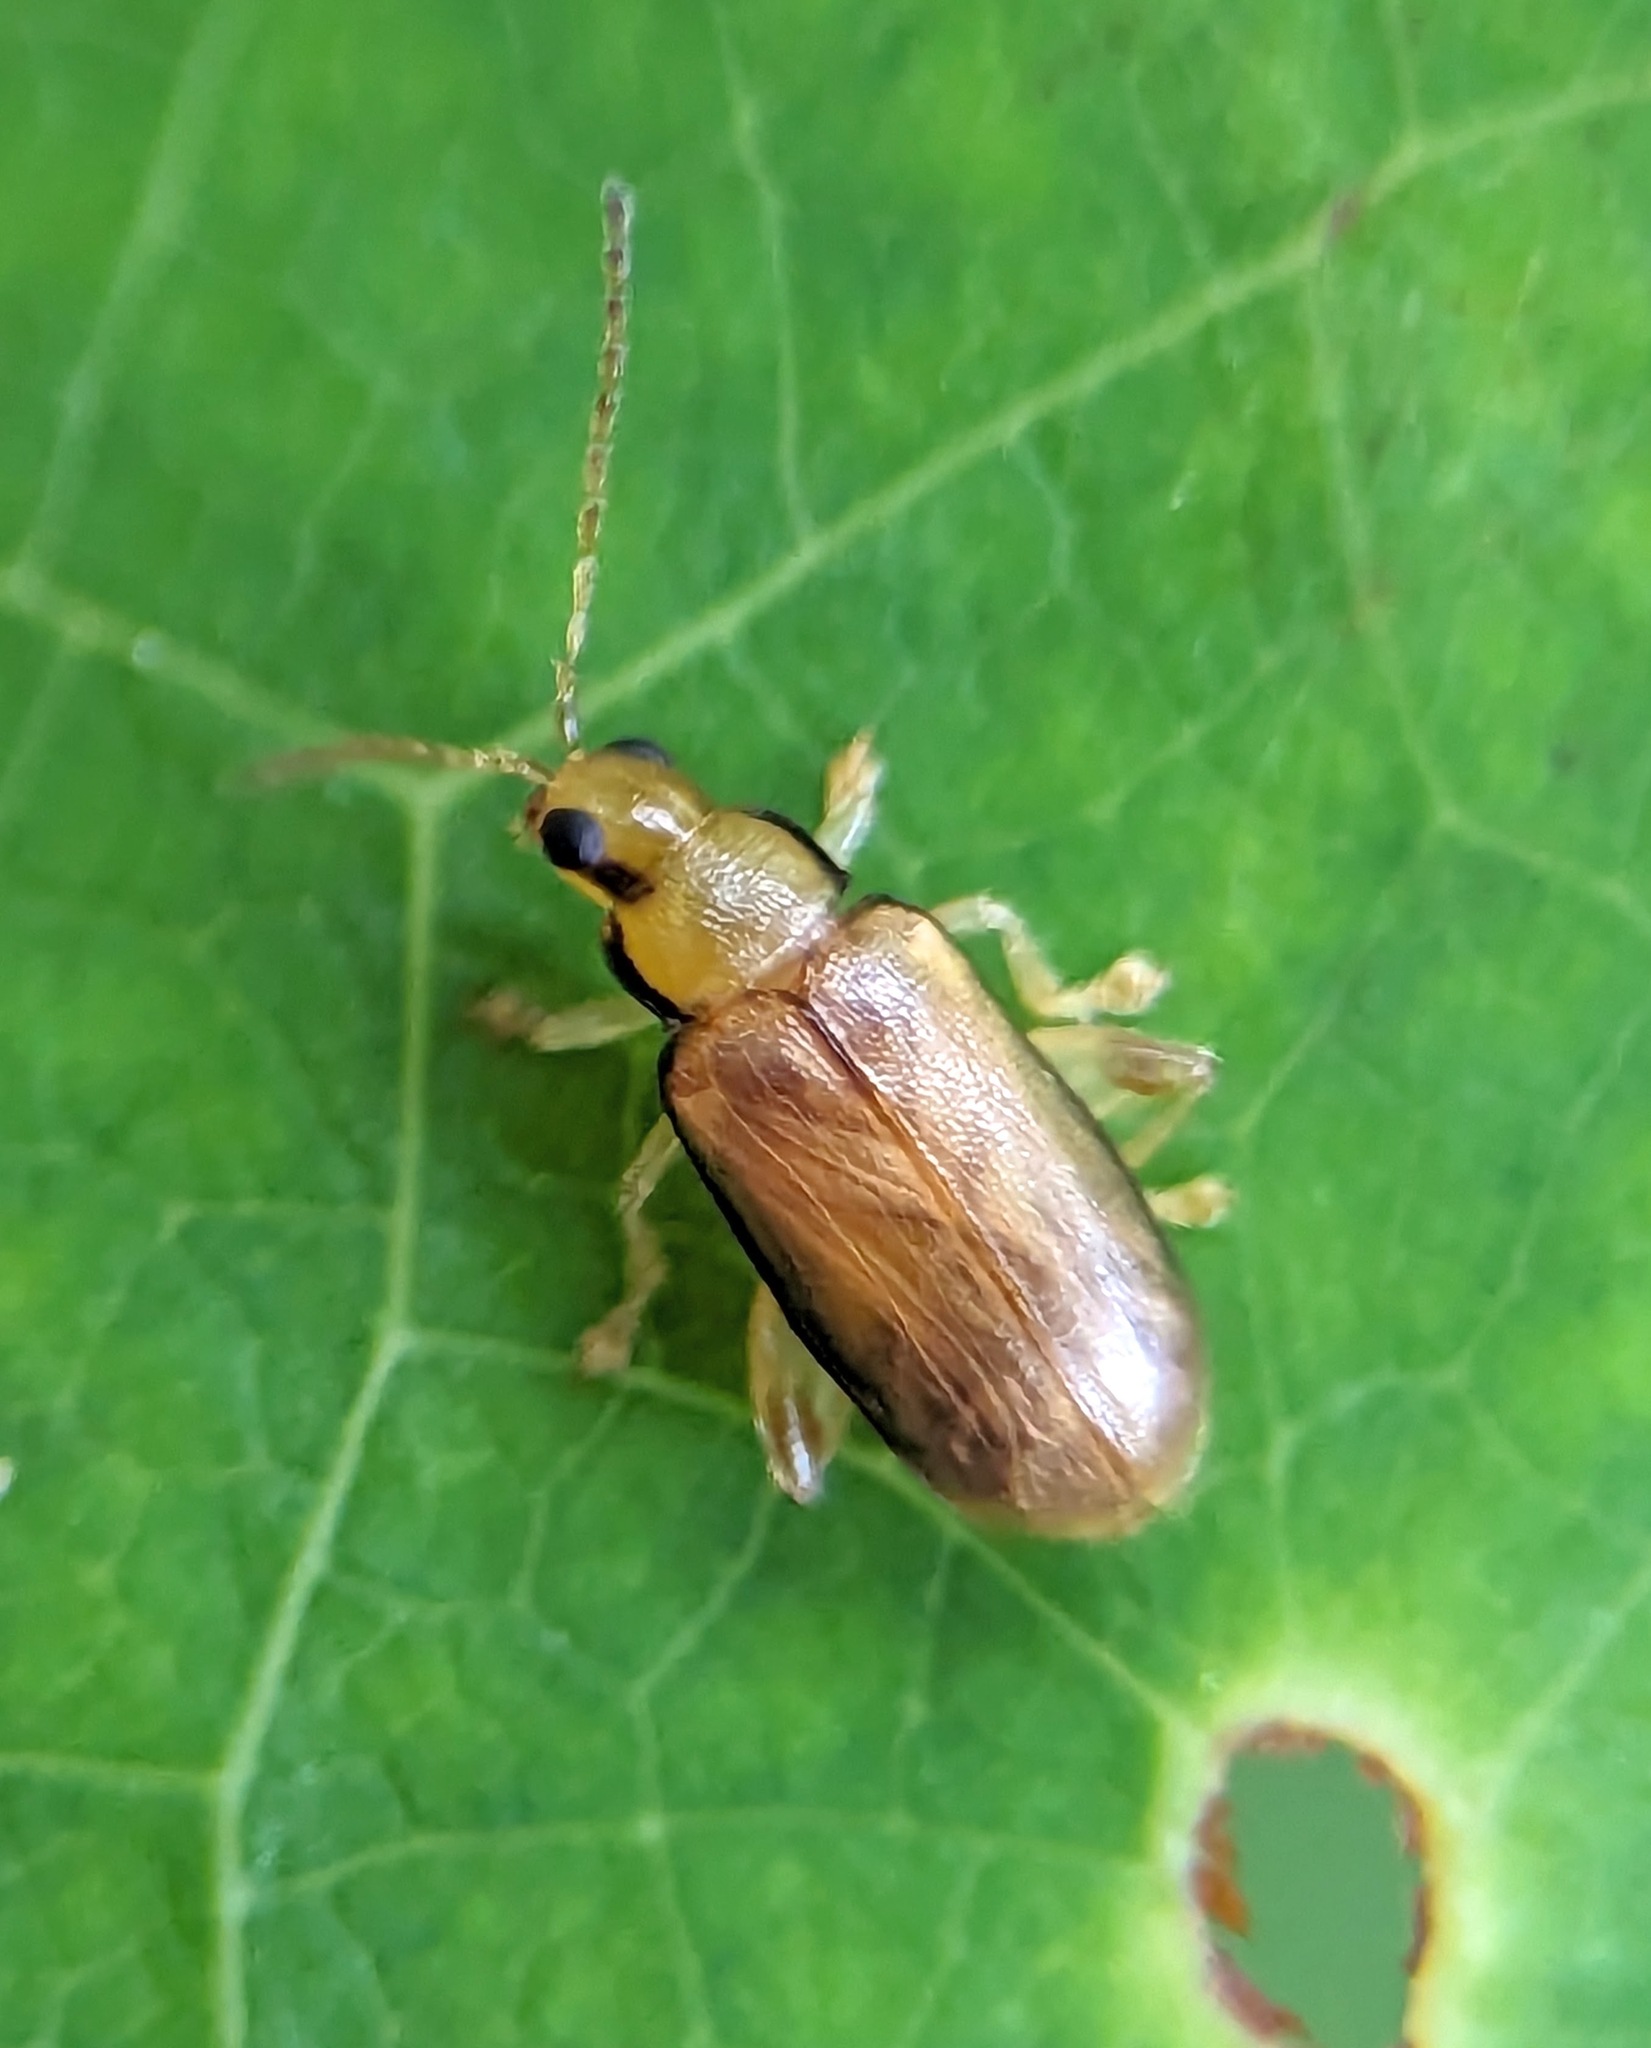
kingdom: Animalia
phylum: Arthropoda
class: Insecta
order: Coleoptera
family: Chrysomelidae
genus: Systena
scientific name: Systena marginalis
